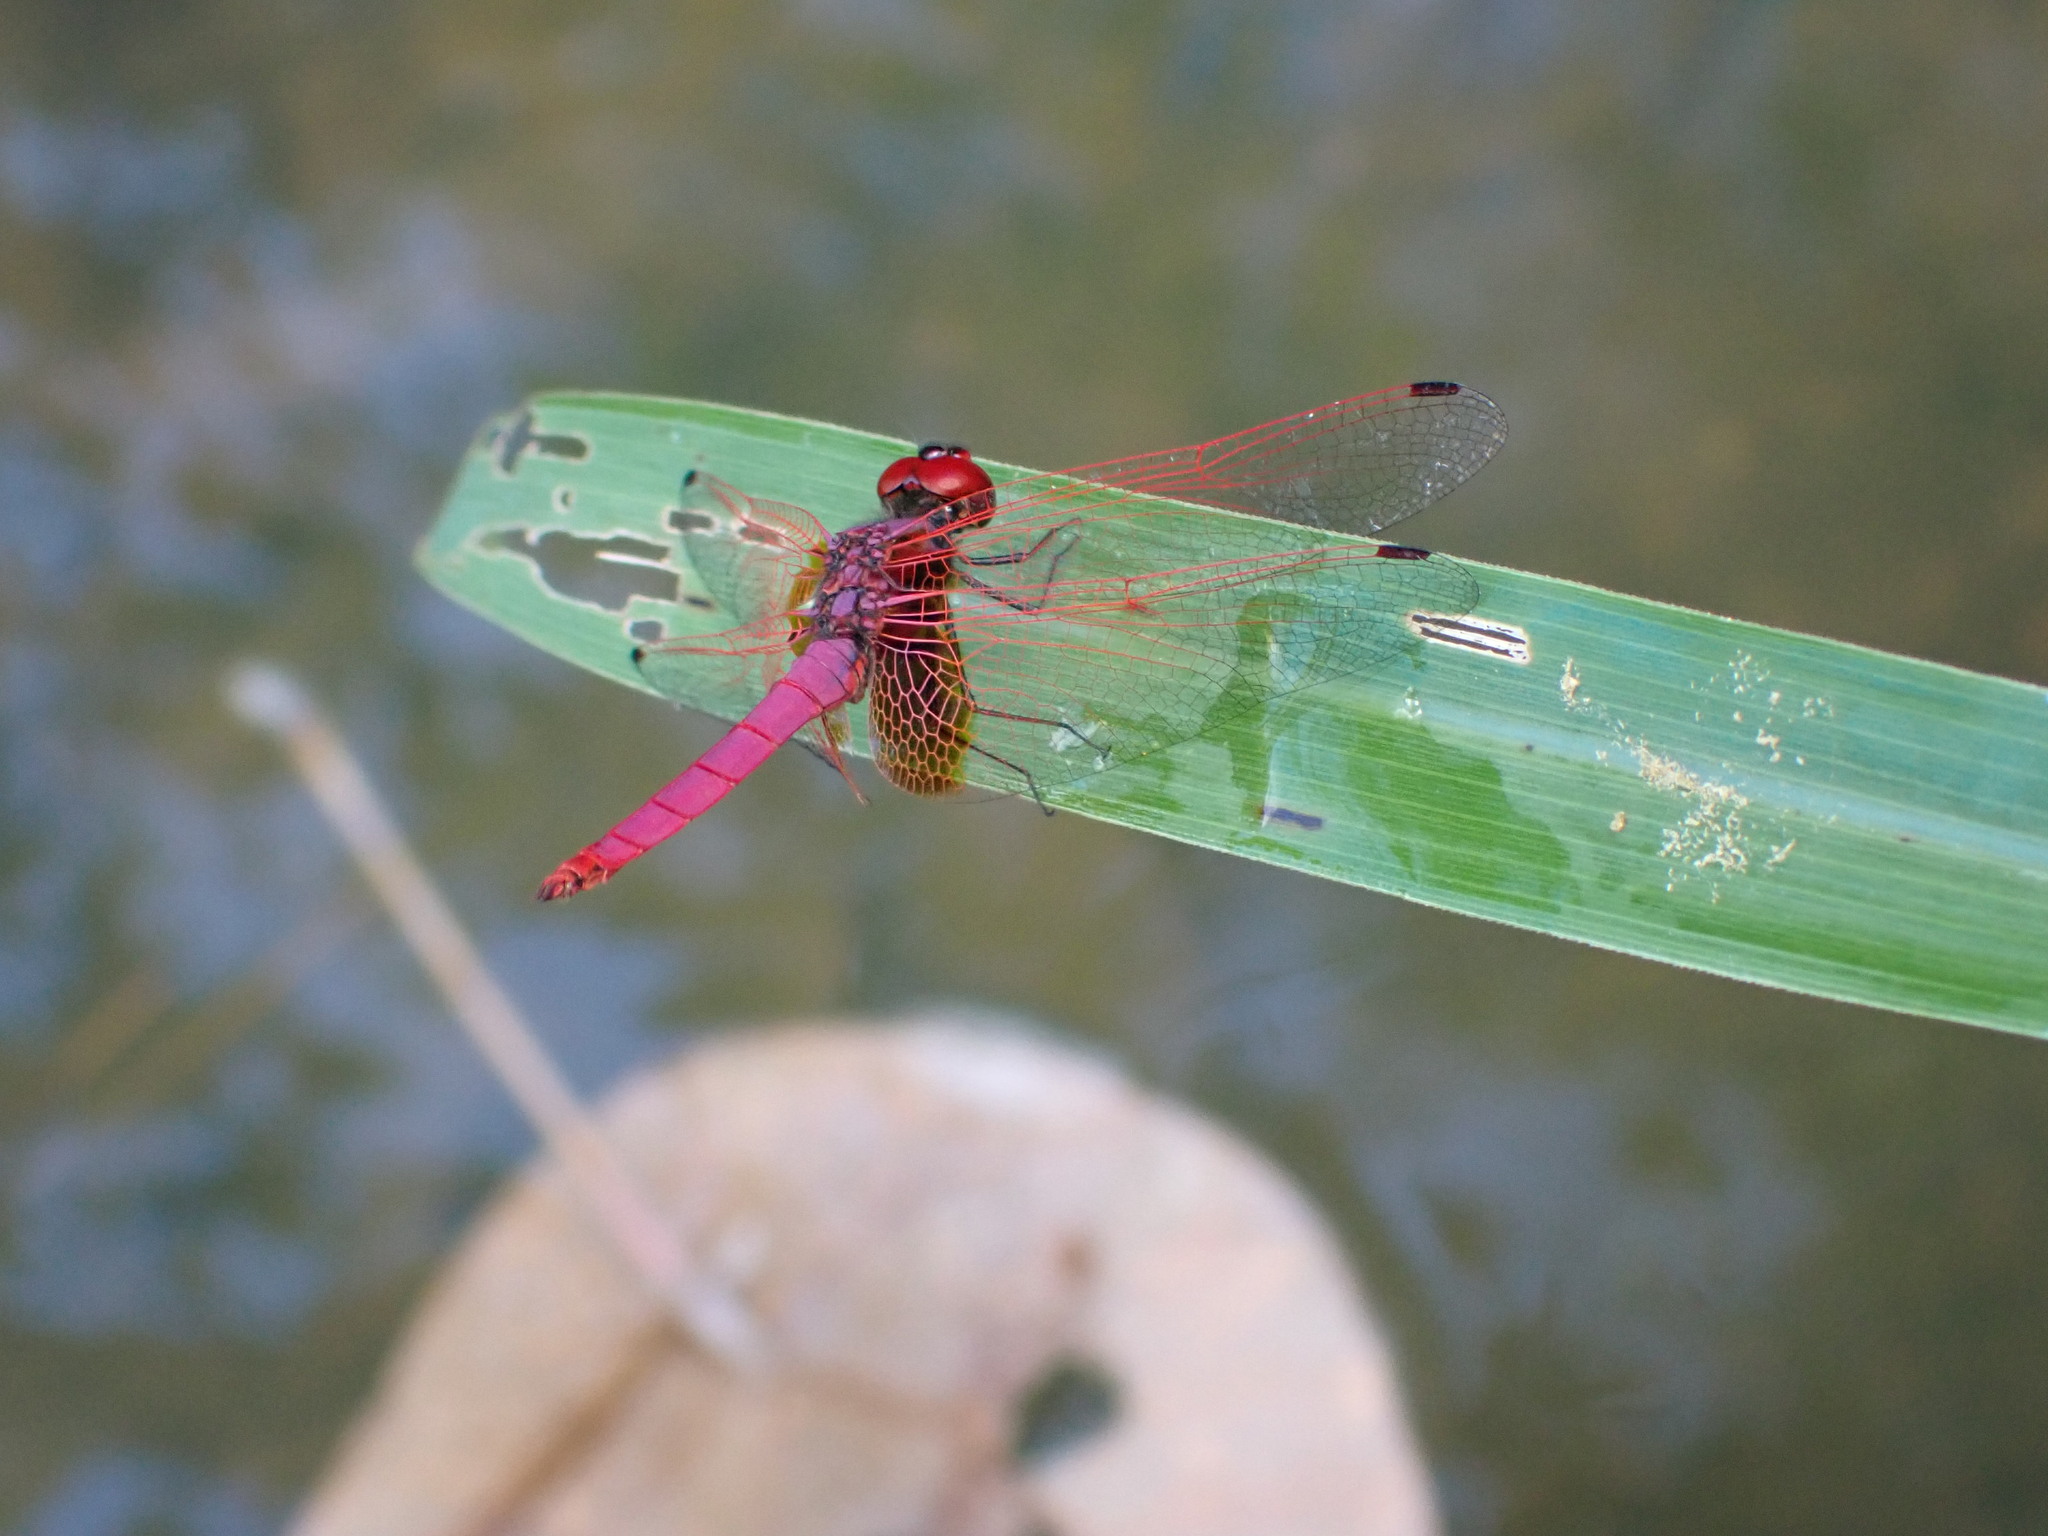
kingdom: Animalia
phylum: Arthropoda
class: Insecta
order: Odonata
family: Libellulidae
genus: Trithemis
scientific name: Trithemis aurora
